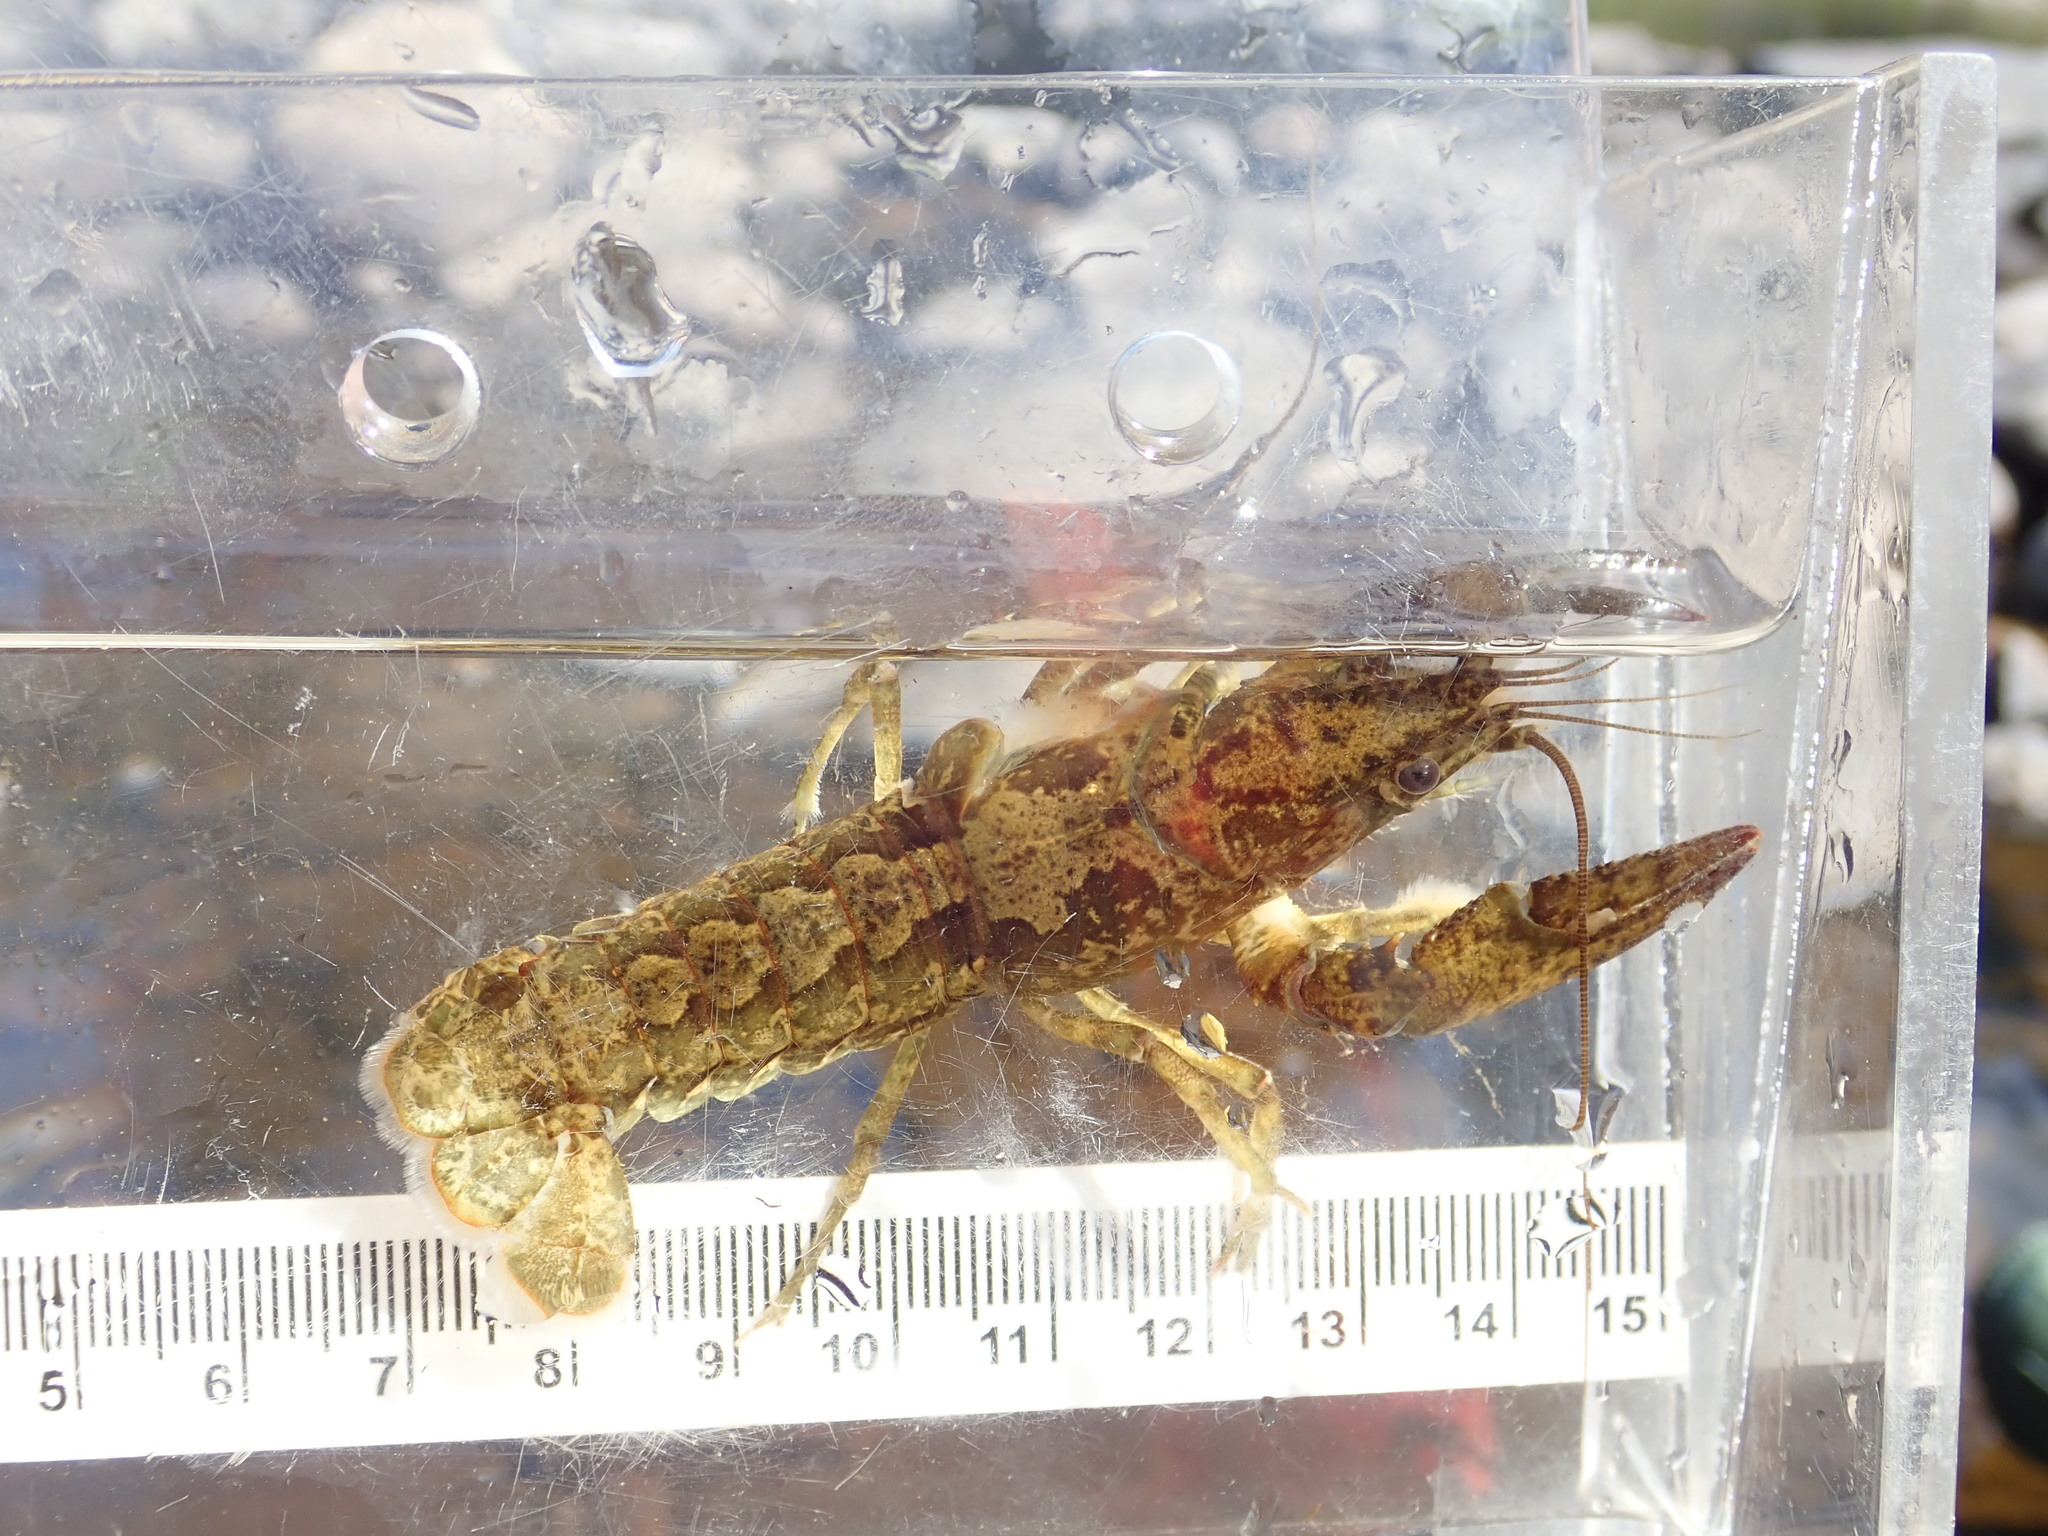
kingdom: Animalia
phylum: Arthropoda
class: Malacostraca
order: Decapoda
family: Cambaridae
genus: Faxonius
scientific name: Faxonius immunis
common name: Calico crayfish
